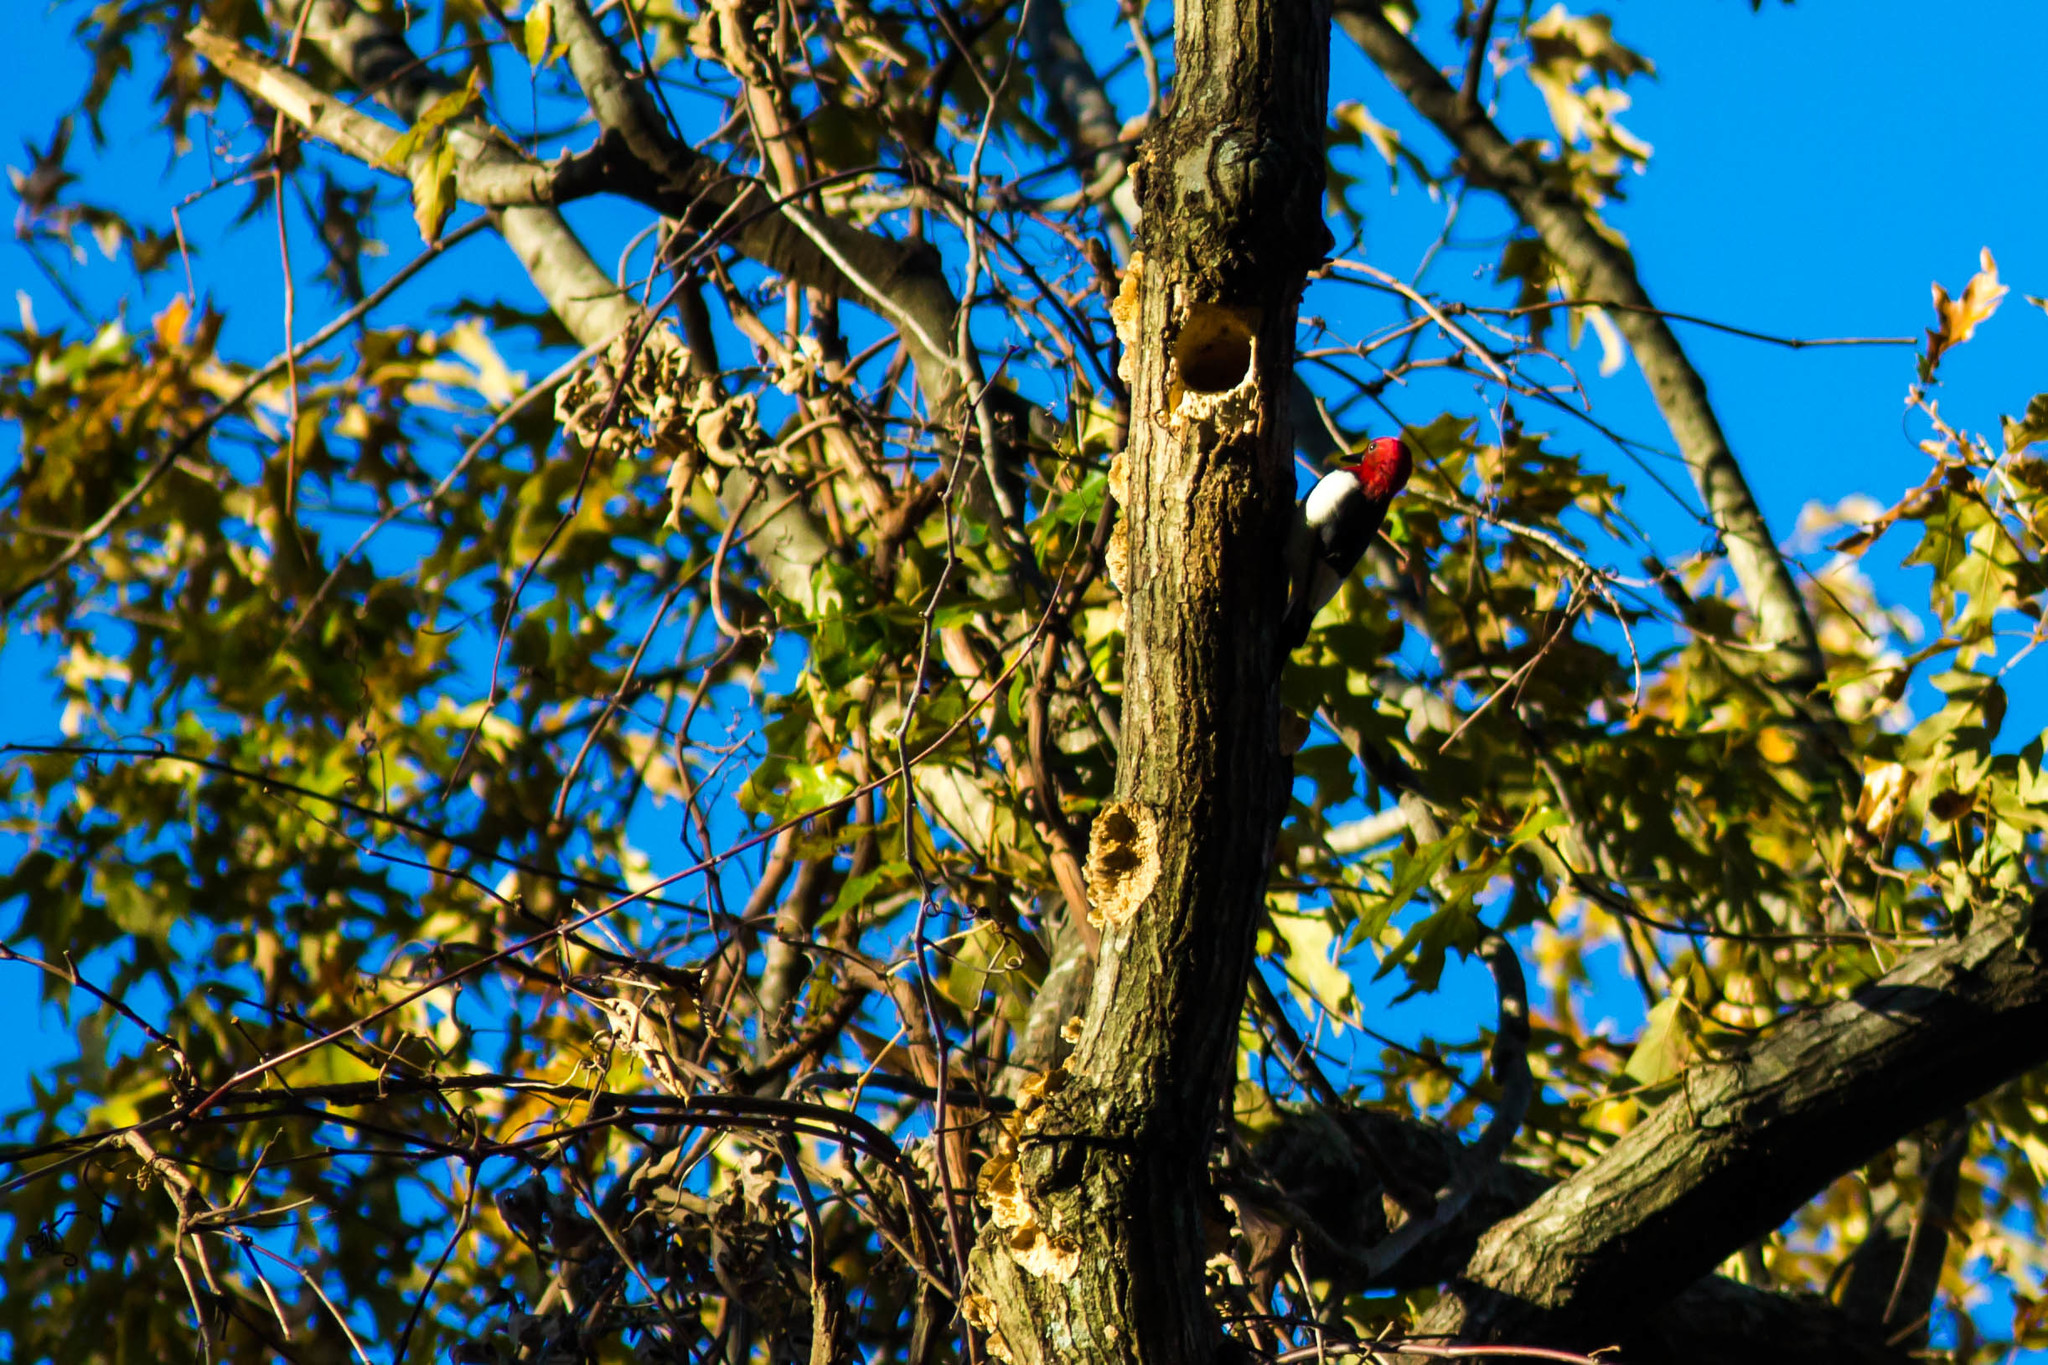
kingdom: Animalia
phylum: Chordata
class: Aves
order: Piciformes
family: Picidae
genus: Melanerpes
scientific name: Melanerpes erythrocephalus
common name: Red-headed woodpecker
